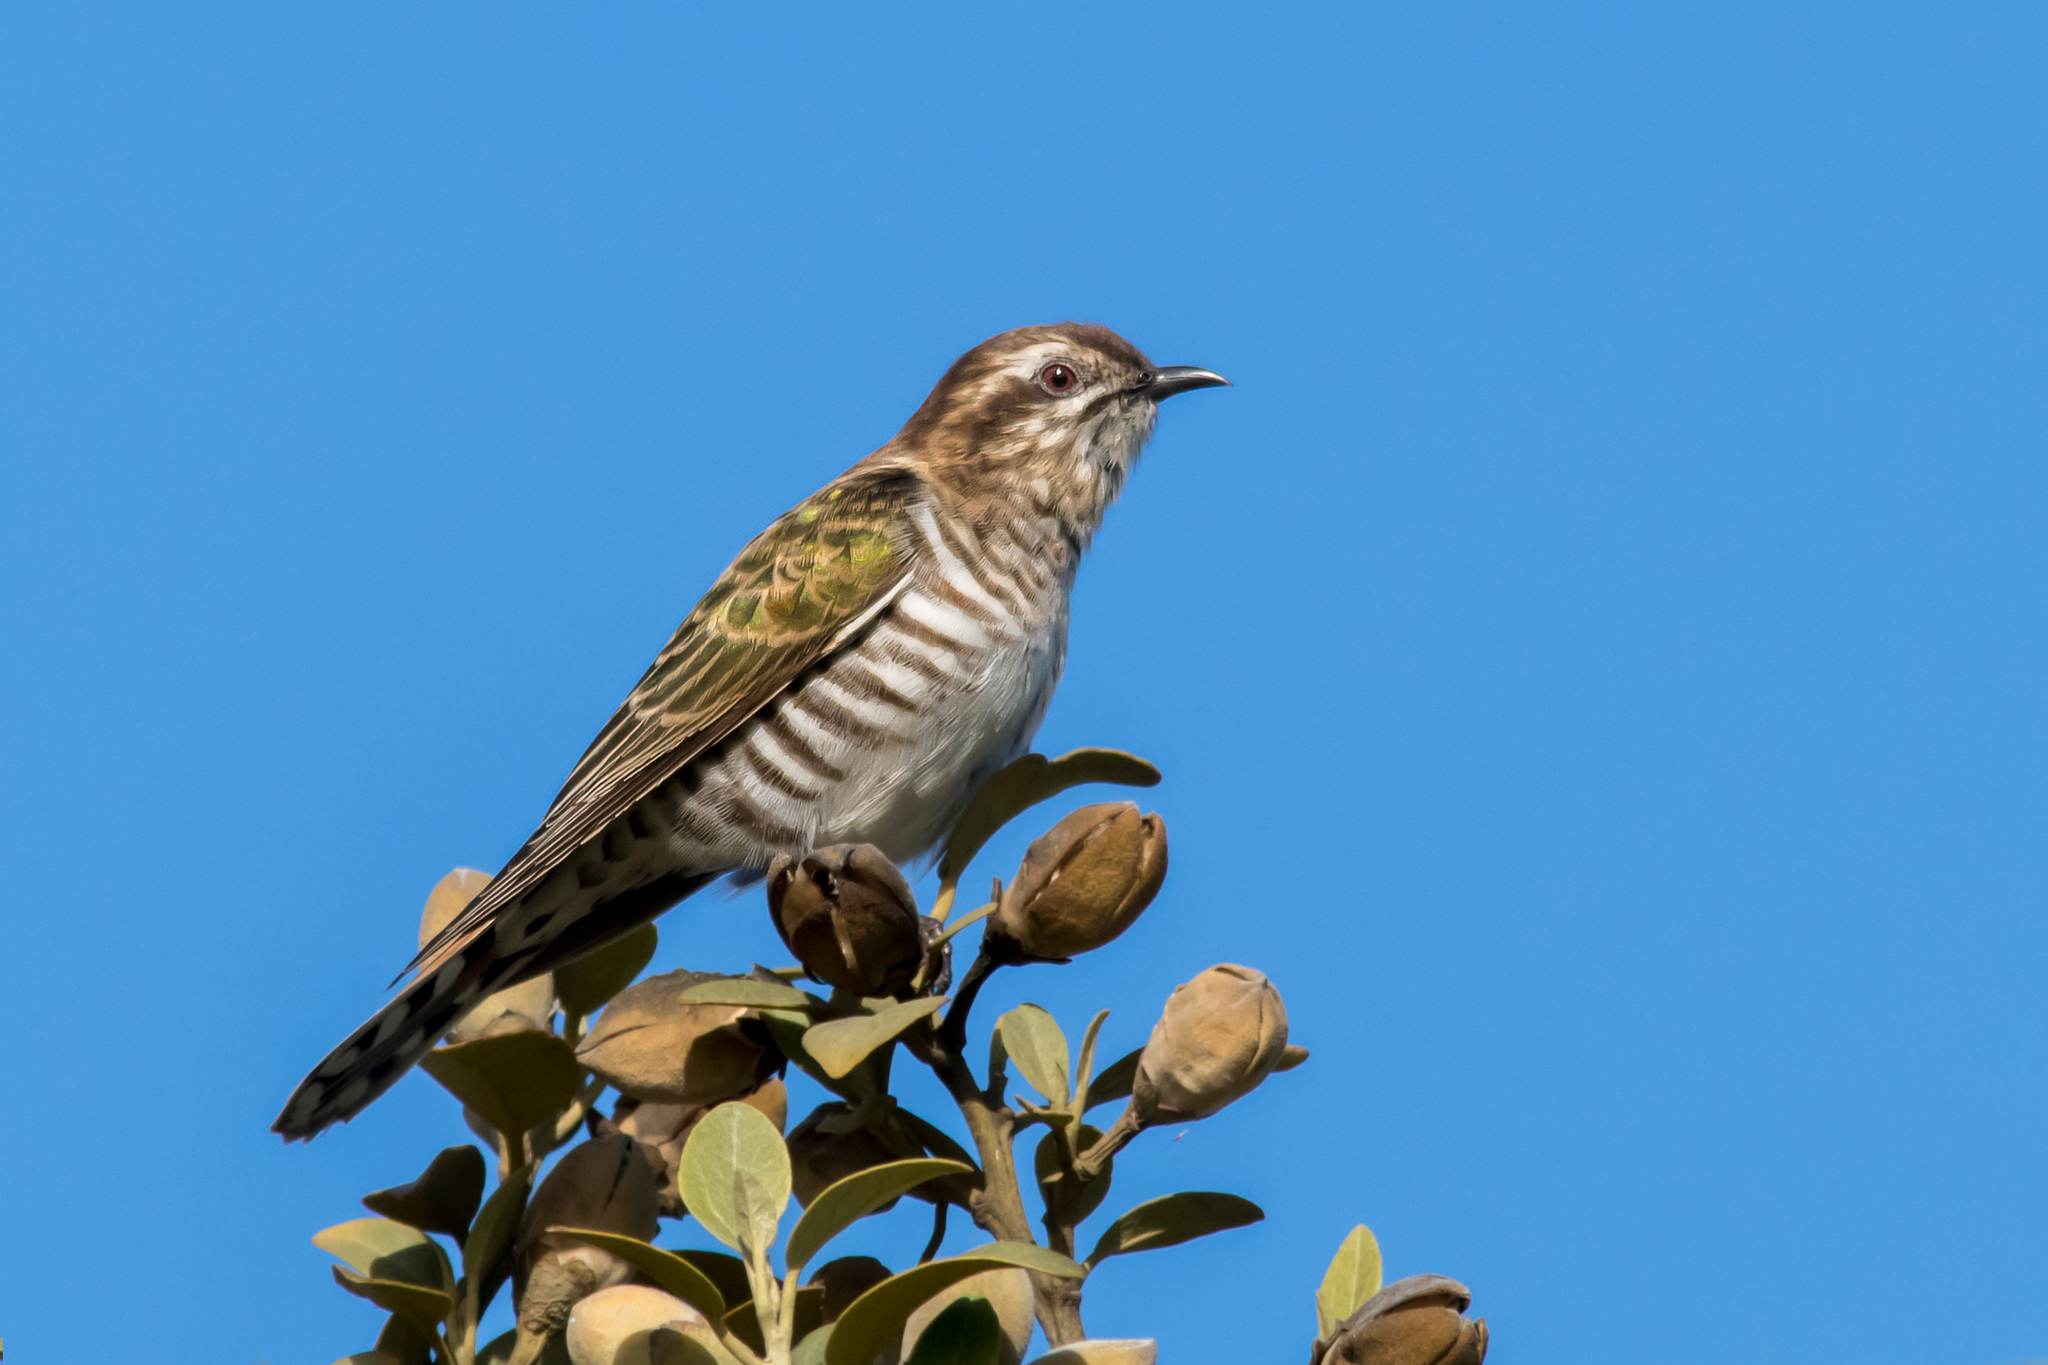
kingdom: Animalia
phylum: Chordata
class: Aves
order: Cuculiformes
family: Cuculidae
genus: Chrysococcyx
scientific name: Chrysococcyx basalis
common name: Horsfield's bronze cuckoo
